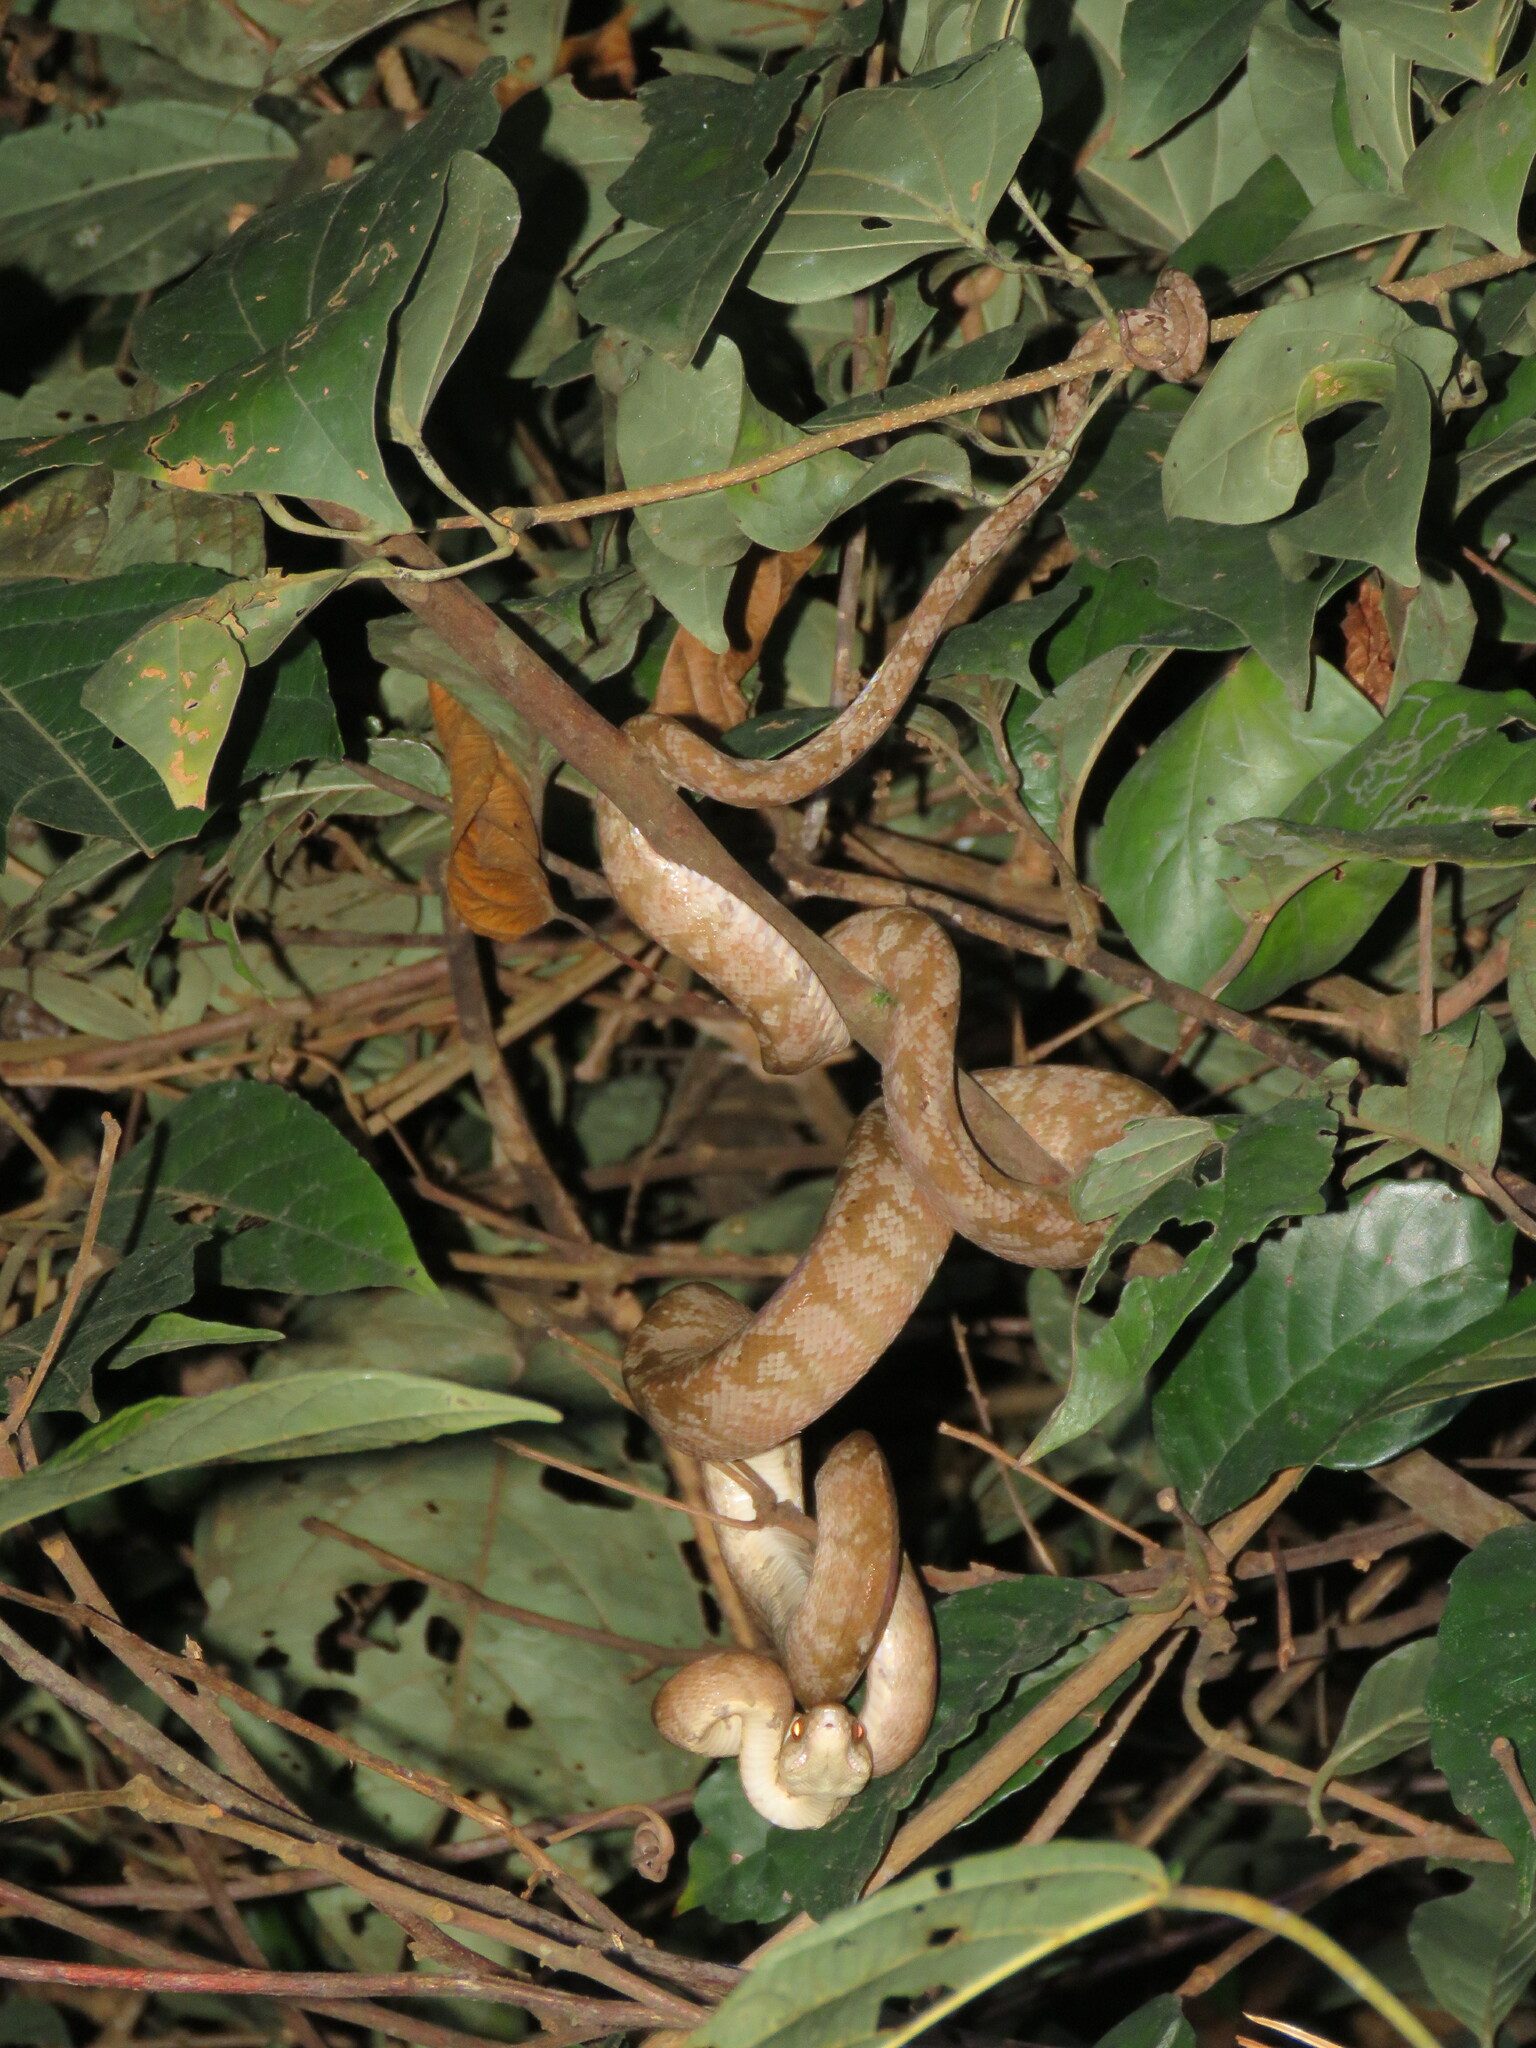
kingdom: Animalia
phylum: Chordata
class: Squamata
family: Boidae
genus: Corallus
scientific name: Corallus hortulana
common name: Garden tree boa
